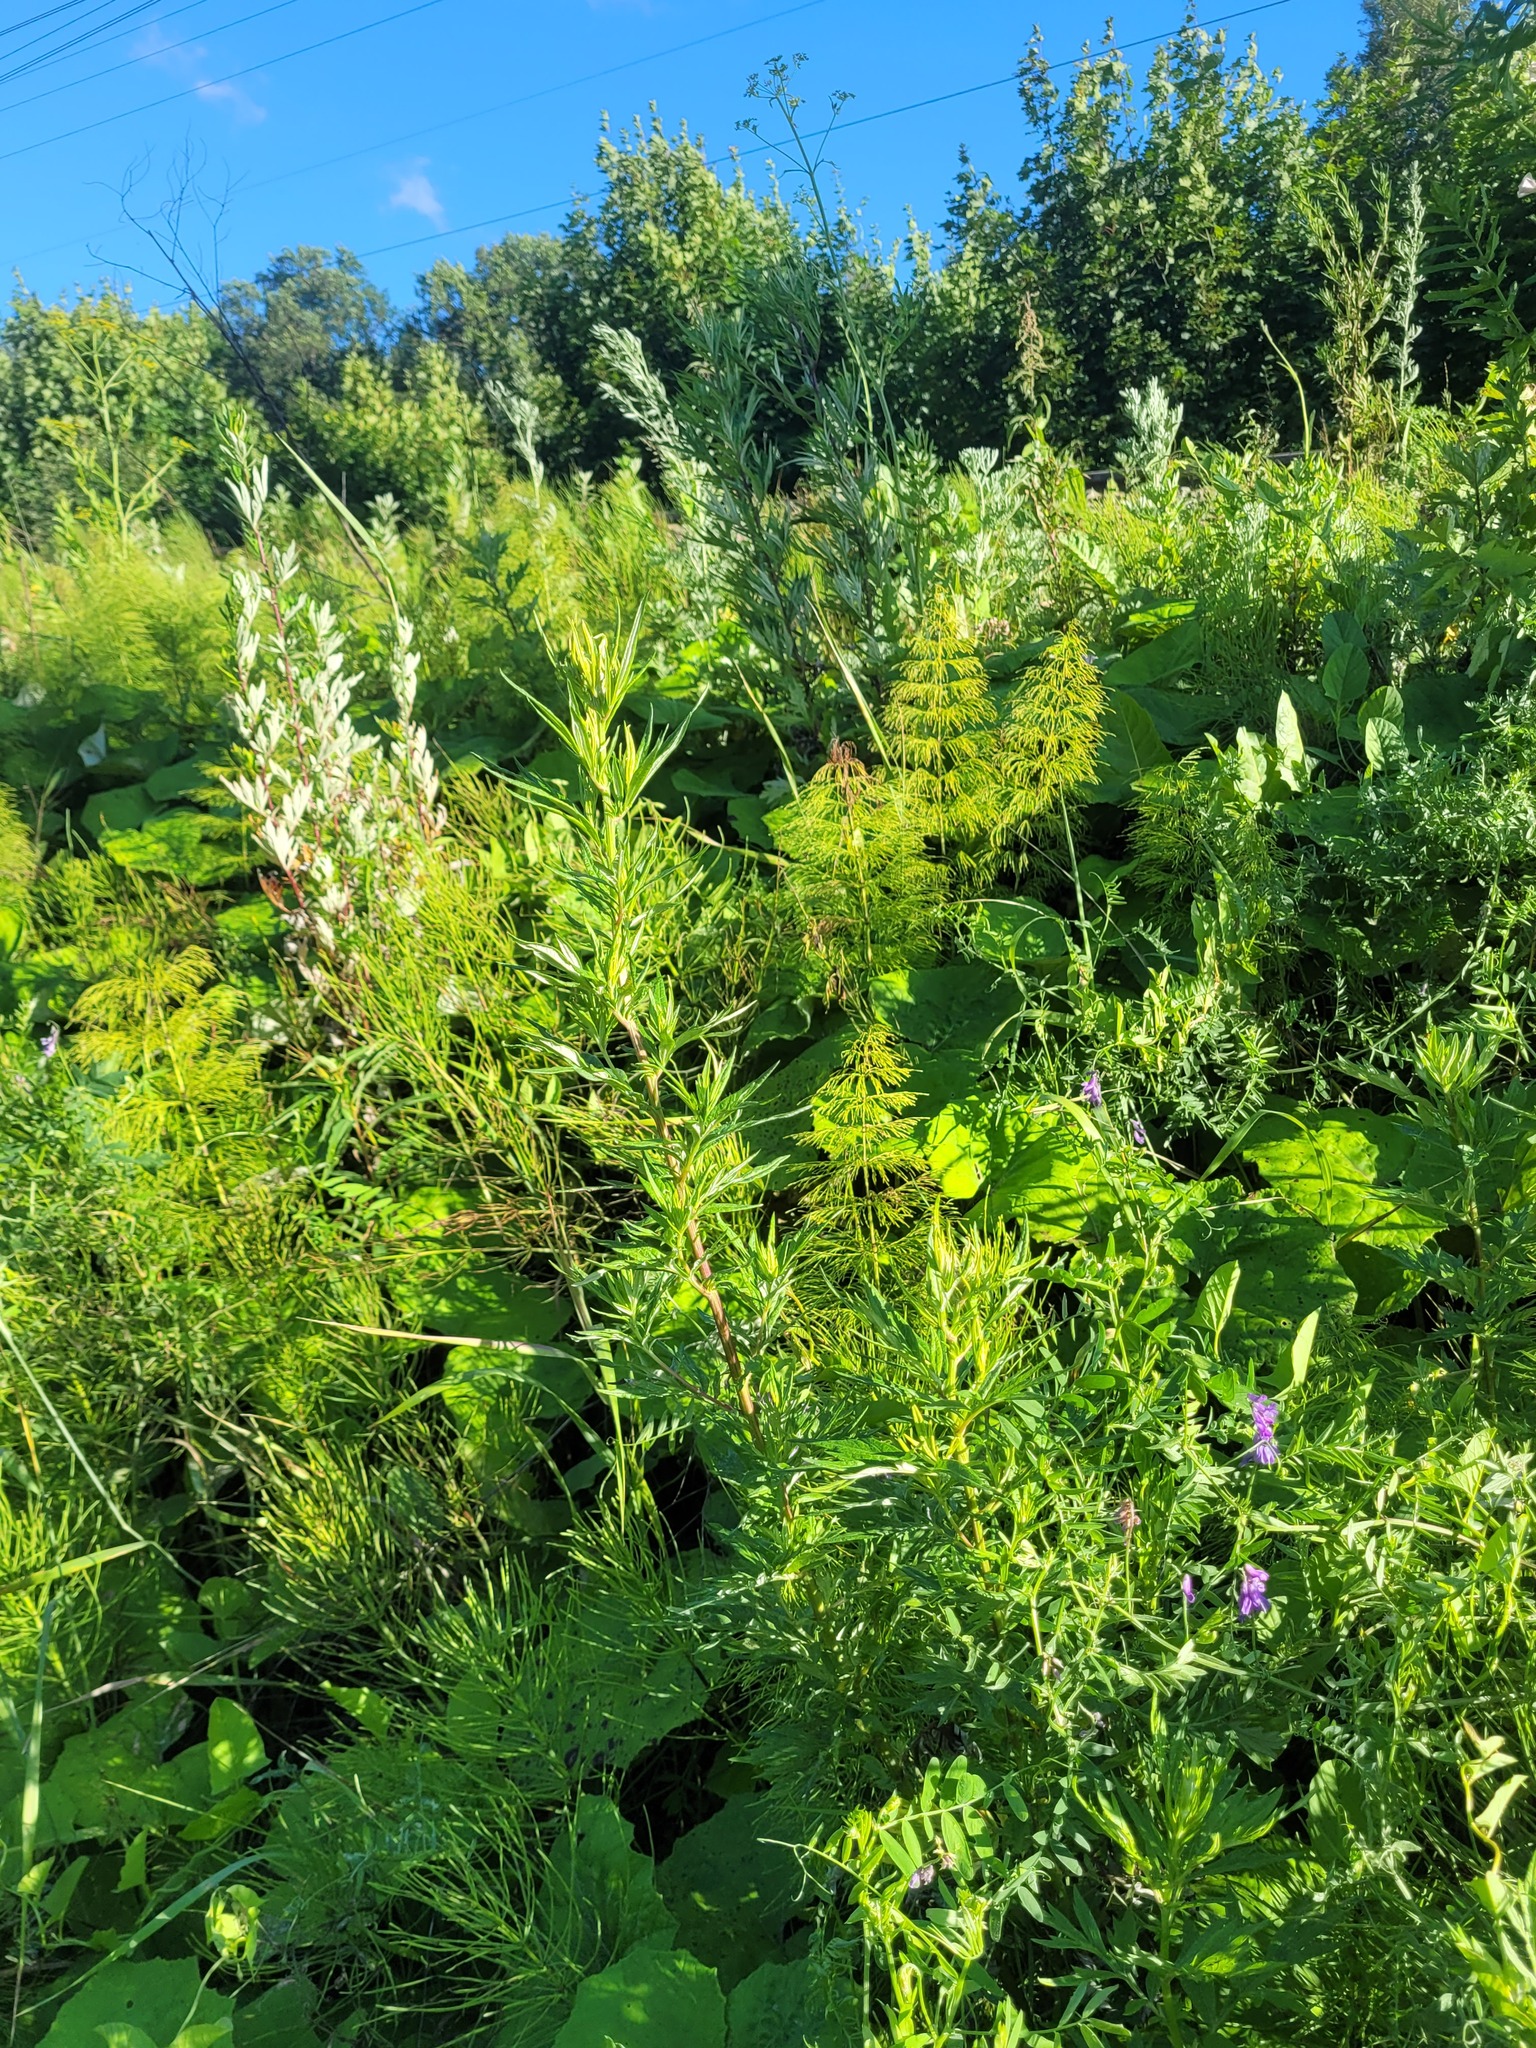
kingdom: Plantae
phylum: Tracheophyta
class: Magnoliopsida
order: Asterales
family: Asteraceae
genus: Artemisia
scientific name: Artemisia vulgaris
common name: Mugwort
